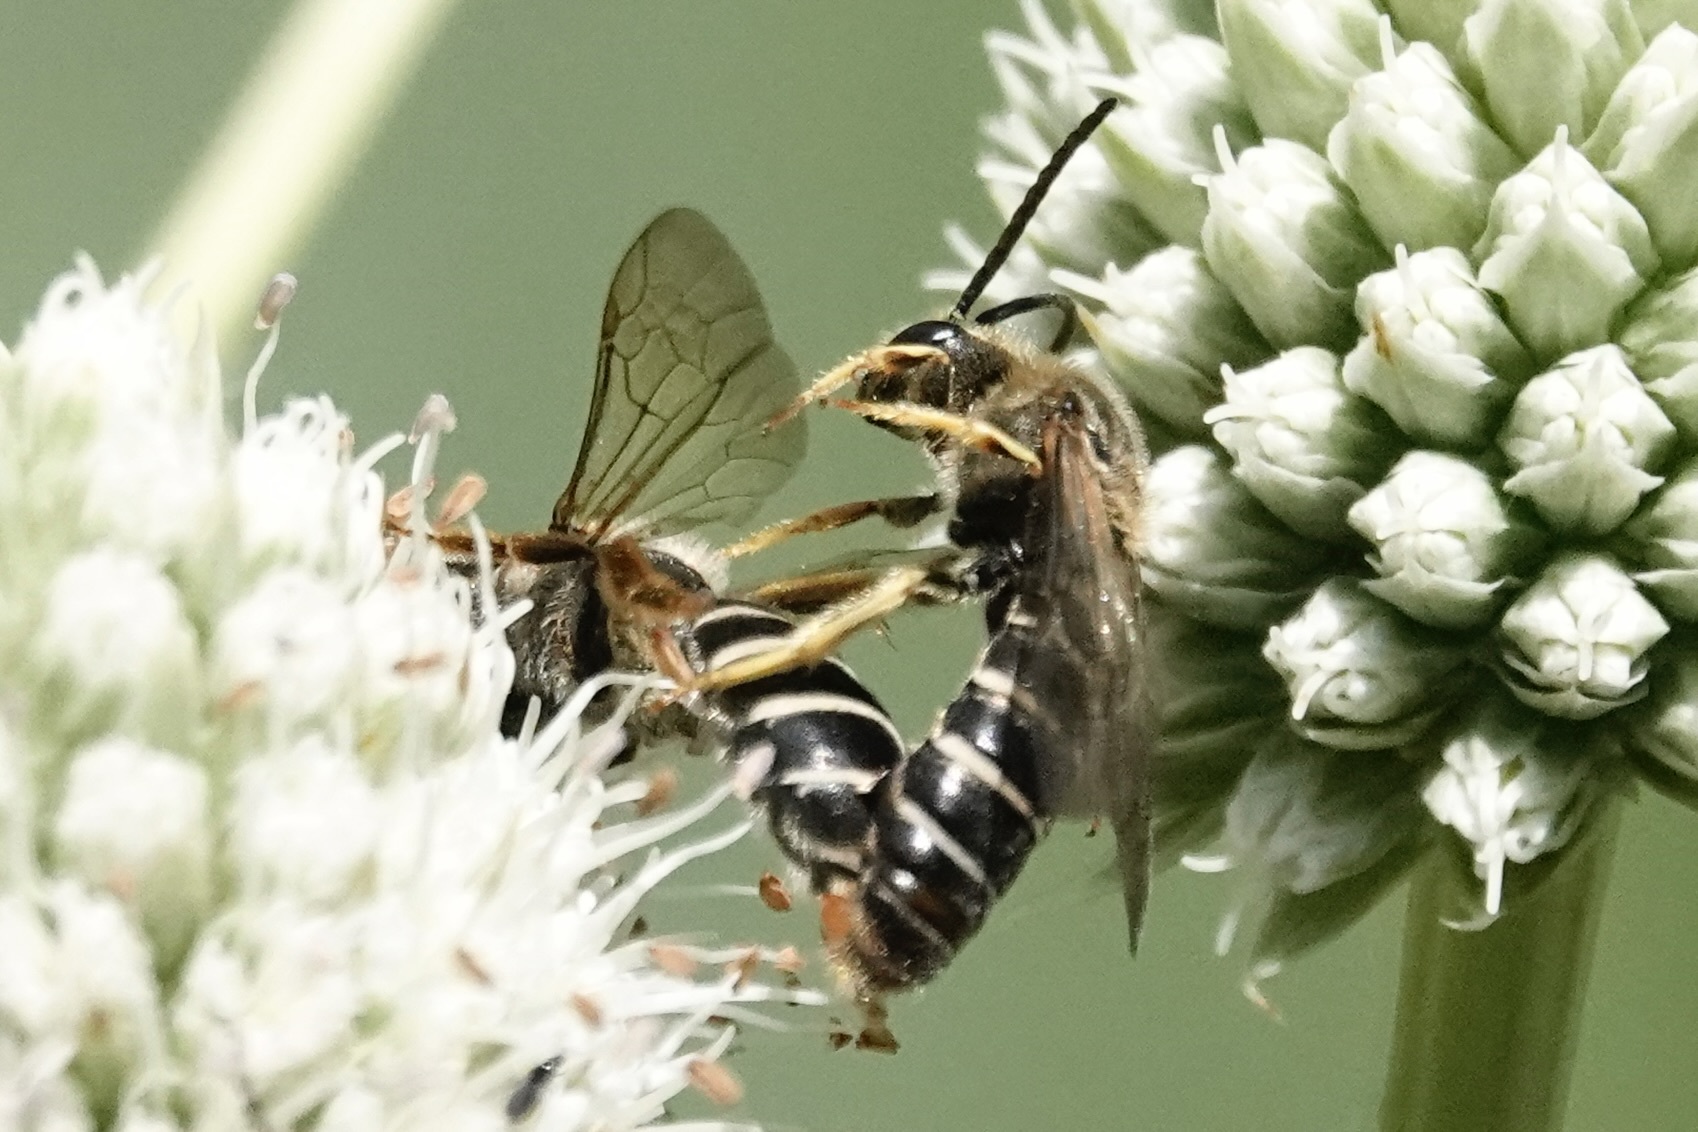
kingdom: Animalia
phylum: Arthropoda
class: Insecta
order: Hymenoptera
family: Halictidae
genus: Halictus
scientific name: Halictus rubicundus
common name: Orange-legged furrow bee
